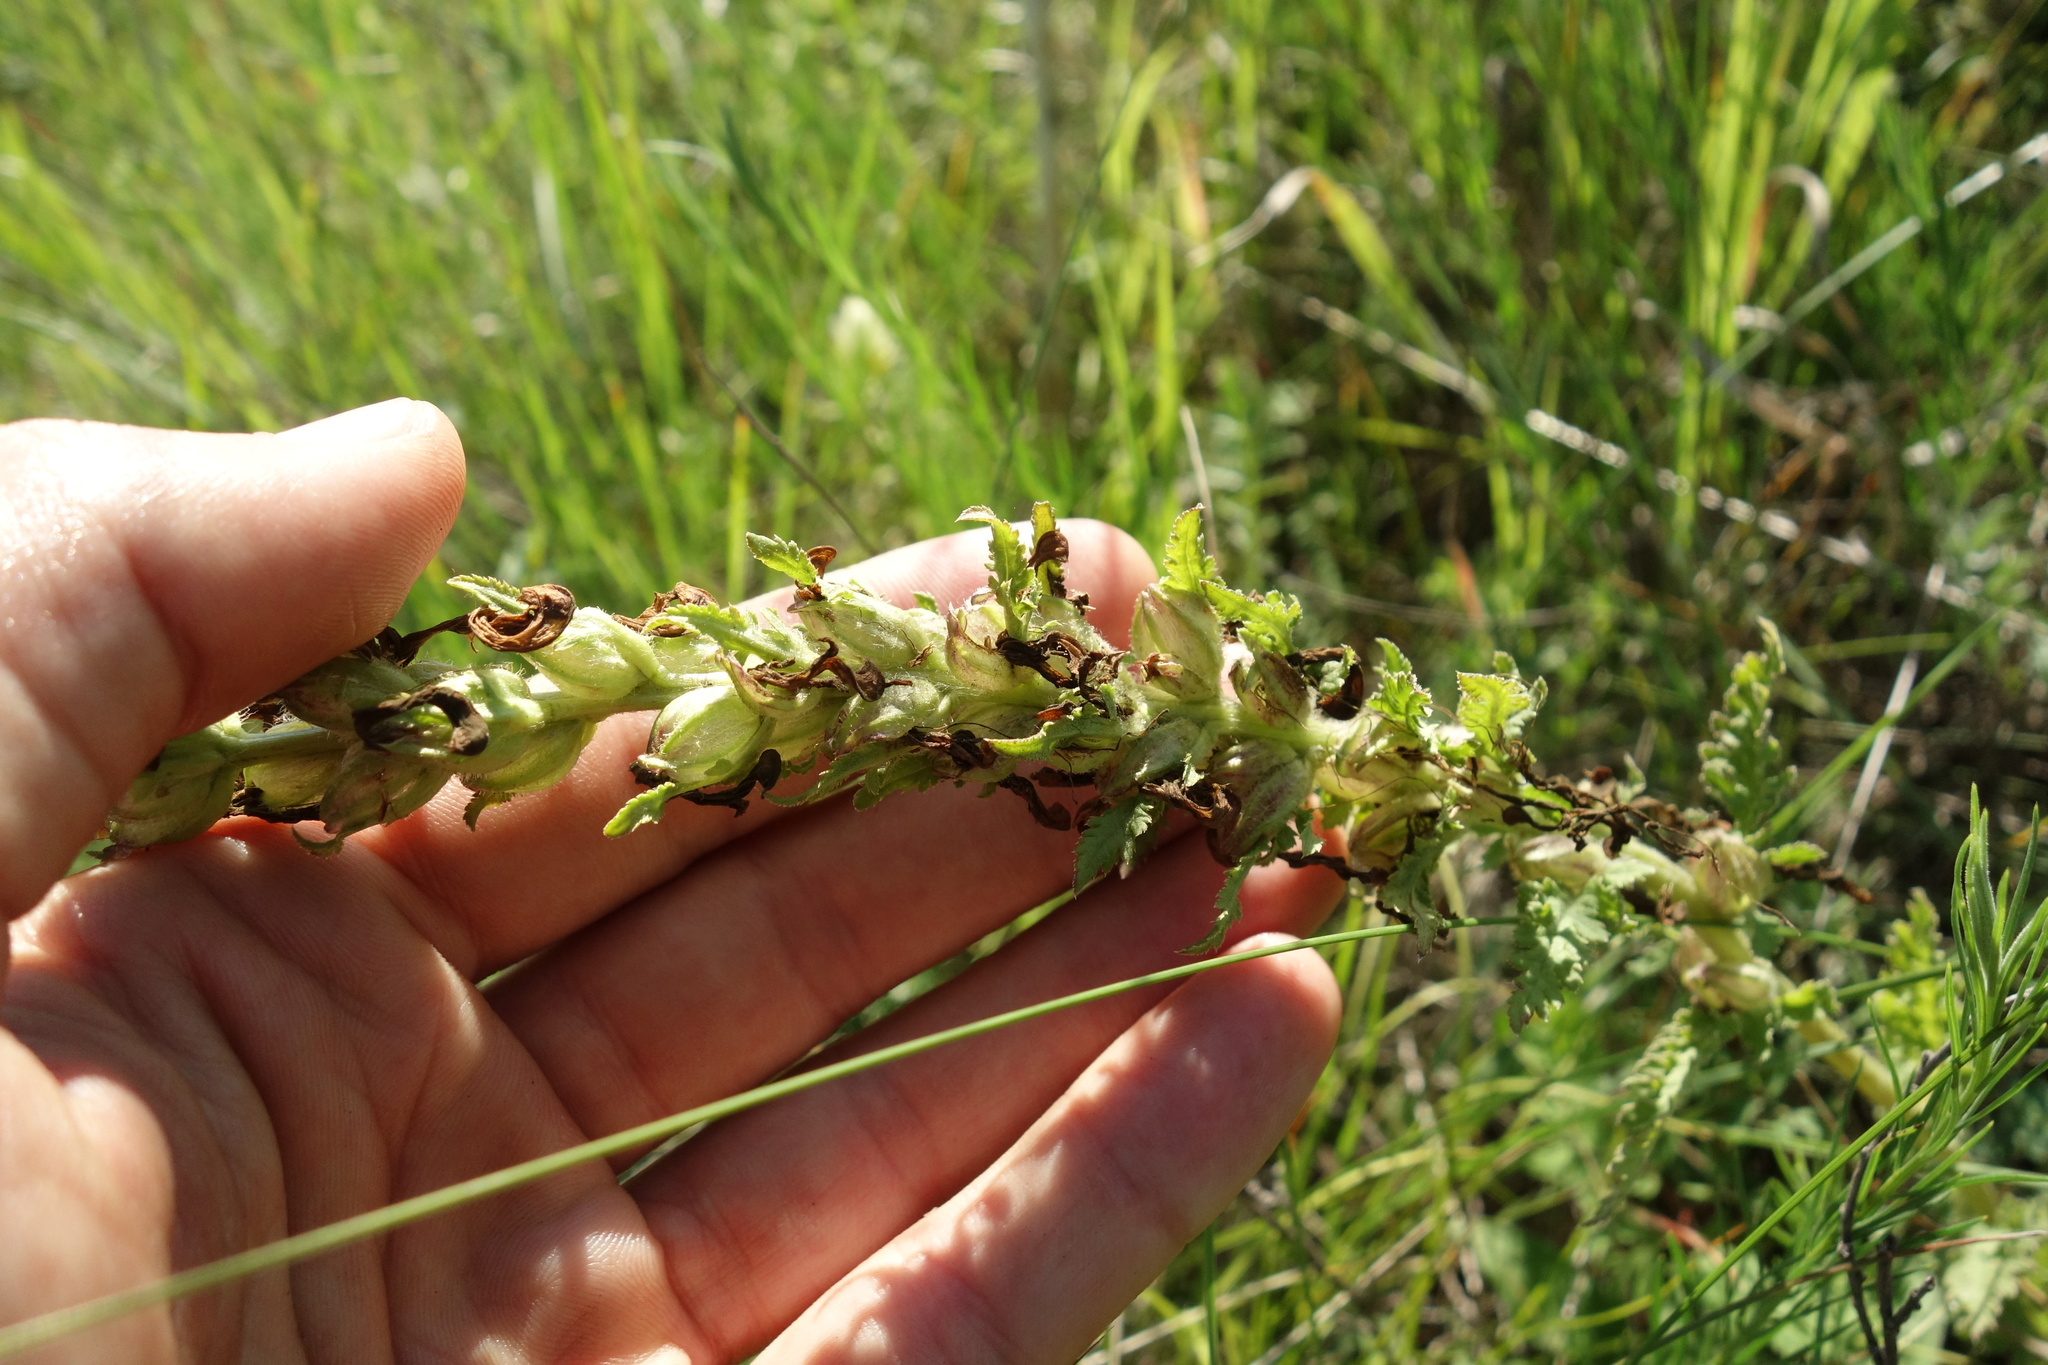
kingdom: Plantae
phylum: Tracheophyta
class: Magnoliopsida
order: Lamiales
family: Orobanchaceae
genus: Pedicularis
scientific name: Pedicularis kaufmannii
